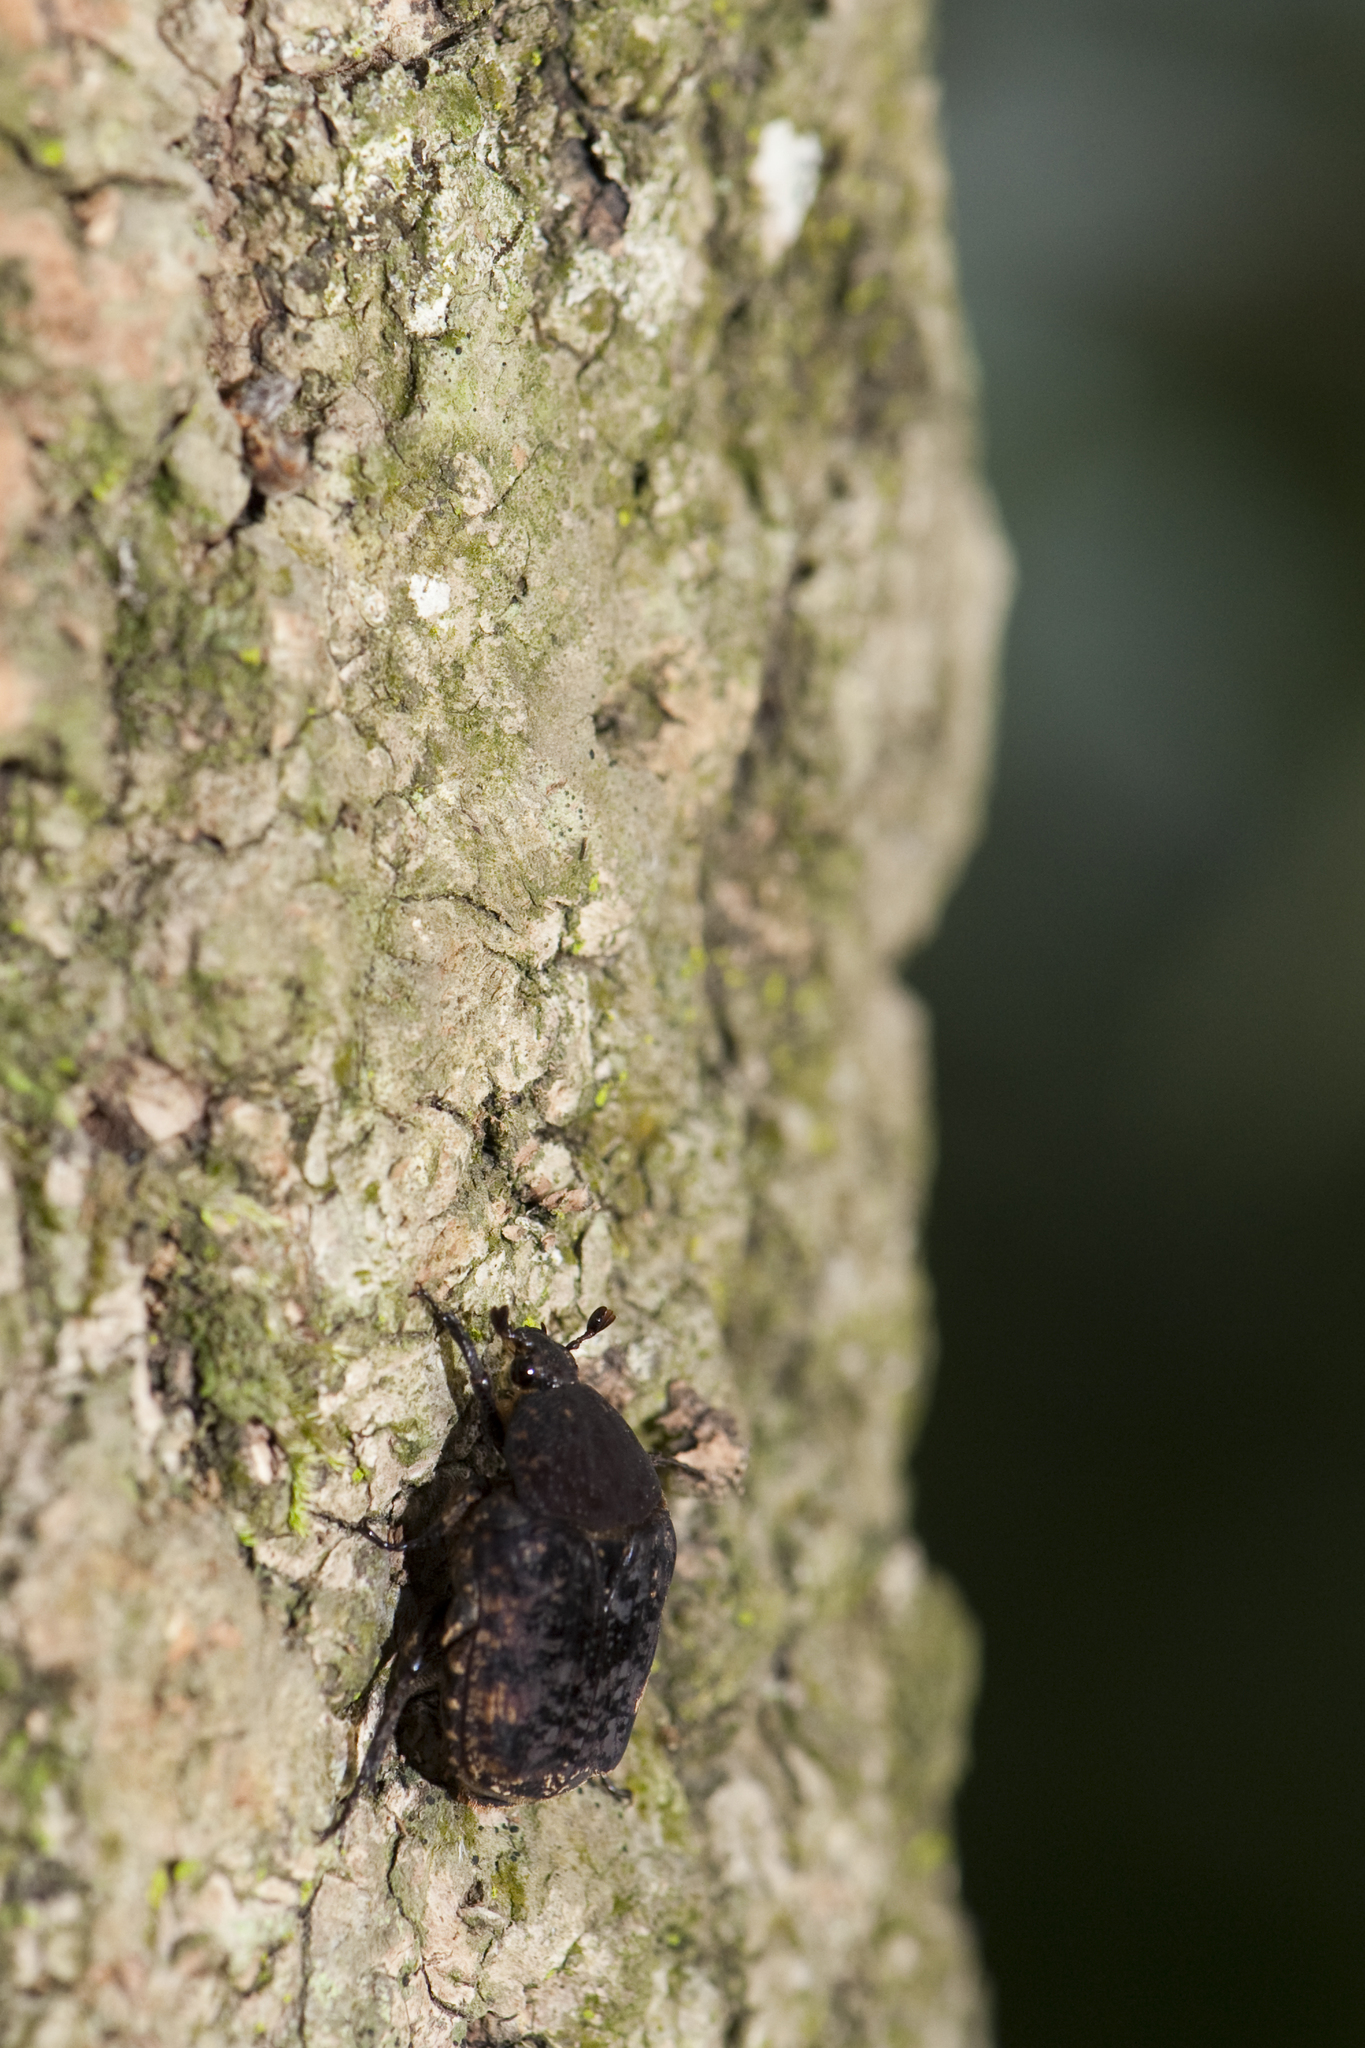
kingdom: Animalia
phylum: Arthropoda
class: Insecta
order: Coleoptera
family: Scarabaeidae
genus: Anthracophora
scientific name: Anthracophora eddai
